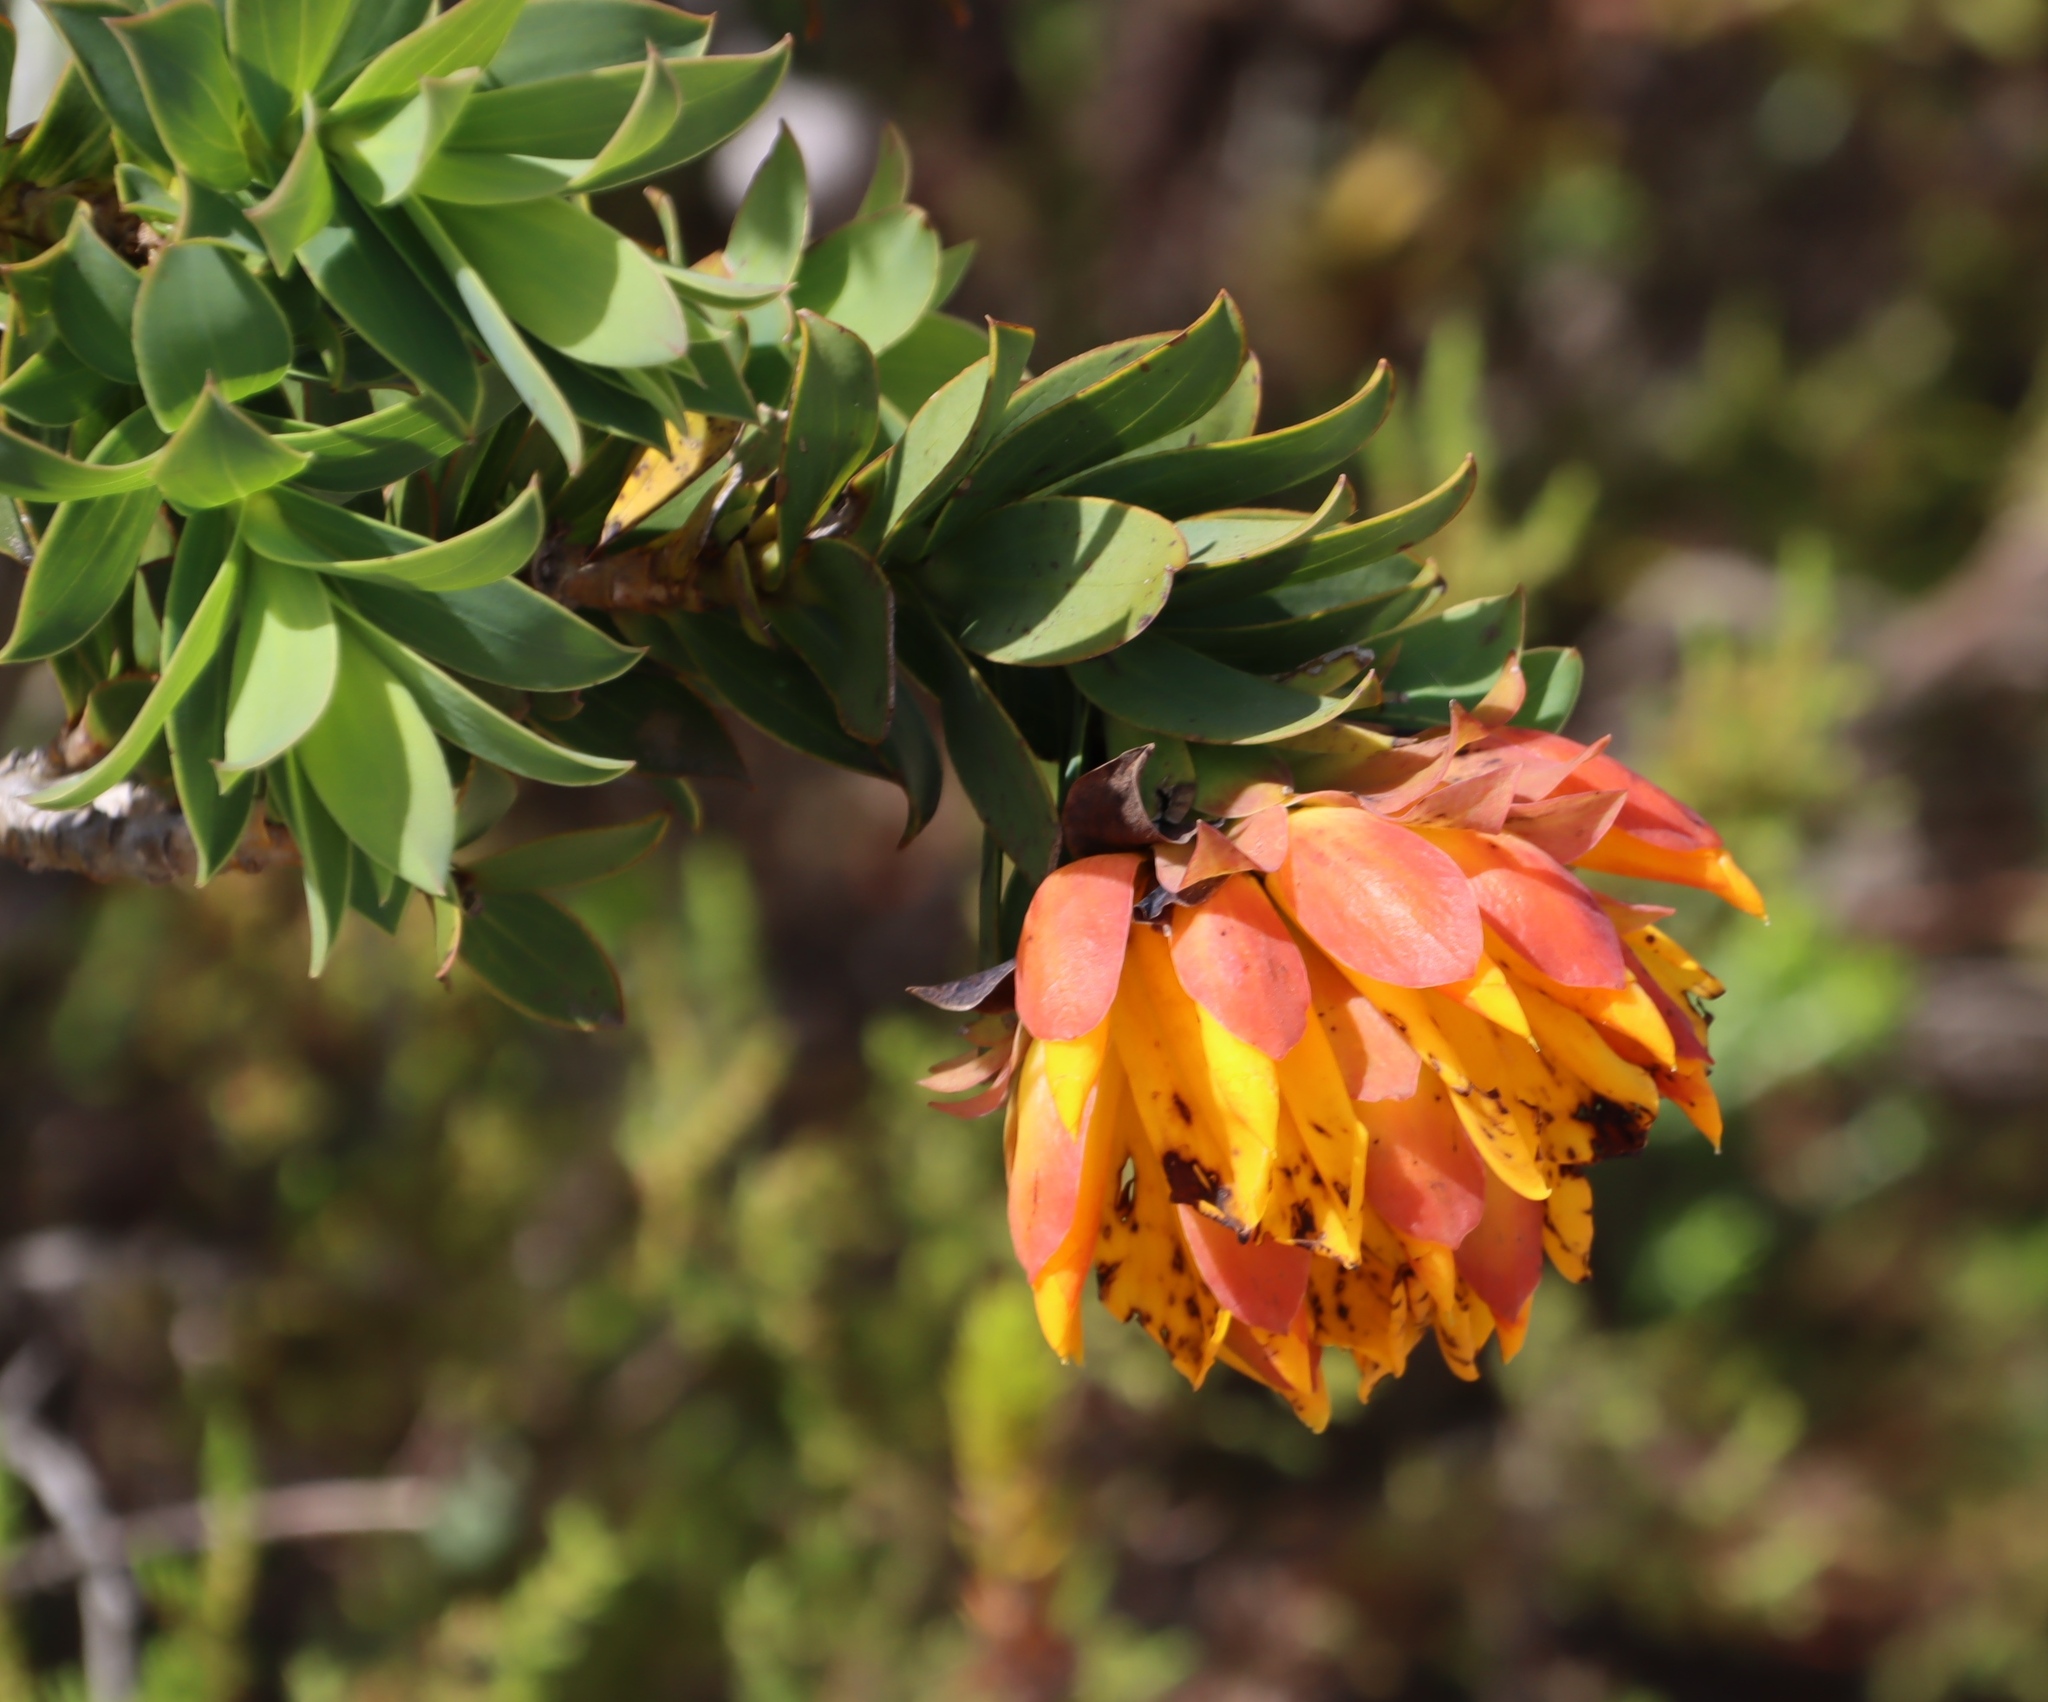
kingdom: Plantae
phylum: Tracheophyta
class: Magnoliopsida
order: Fabales
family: Fabaceae
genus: Liparia
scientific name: Liparia splendens
